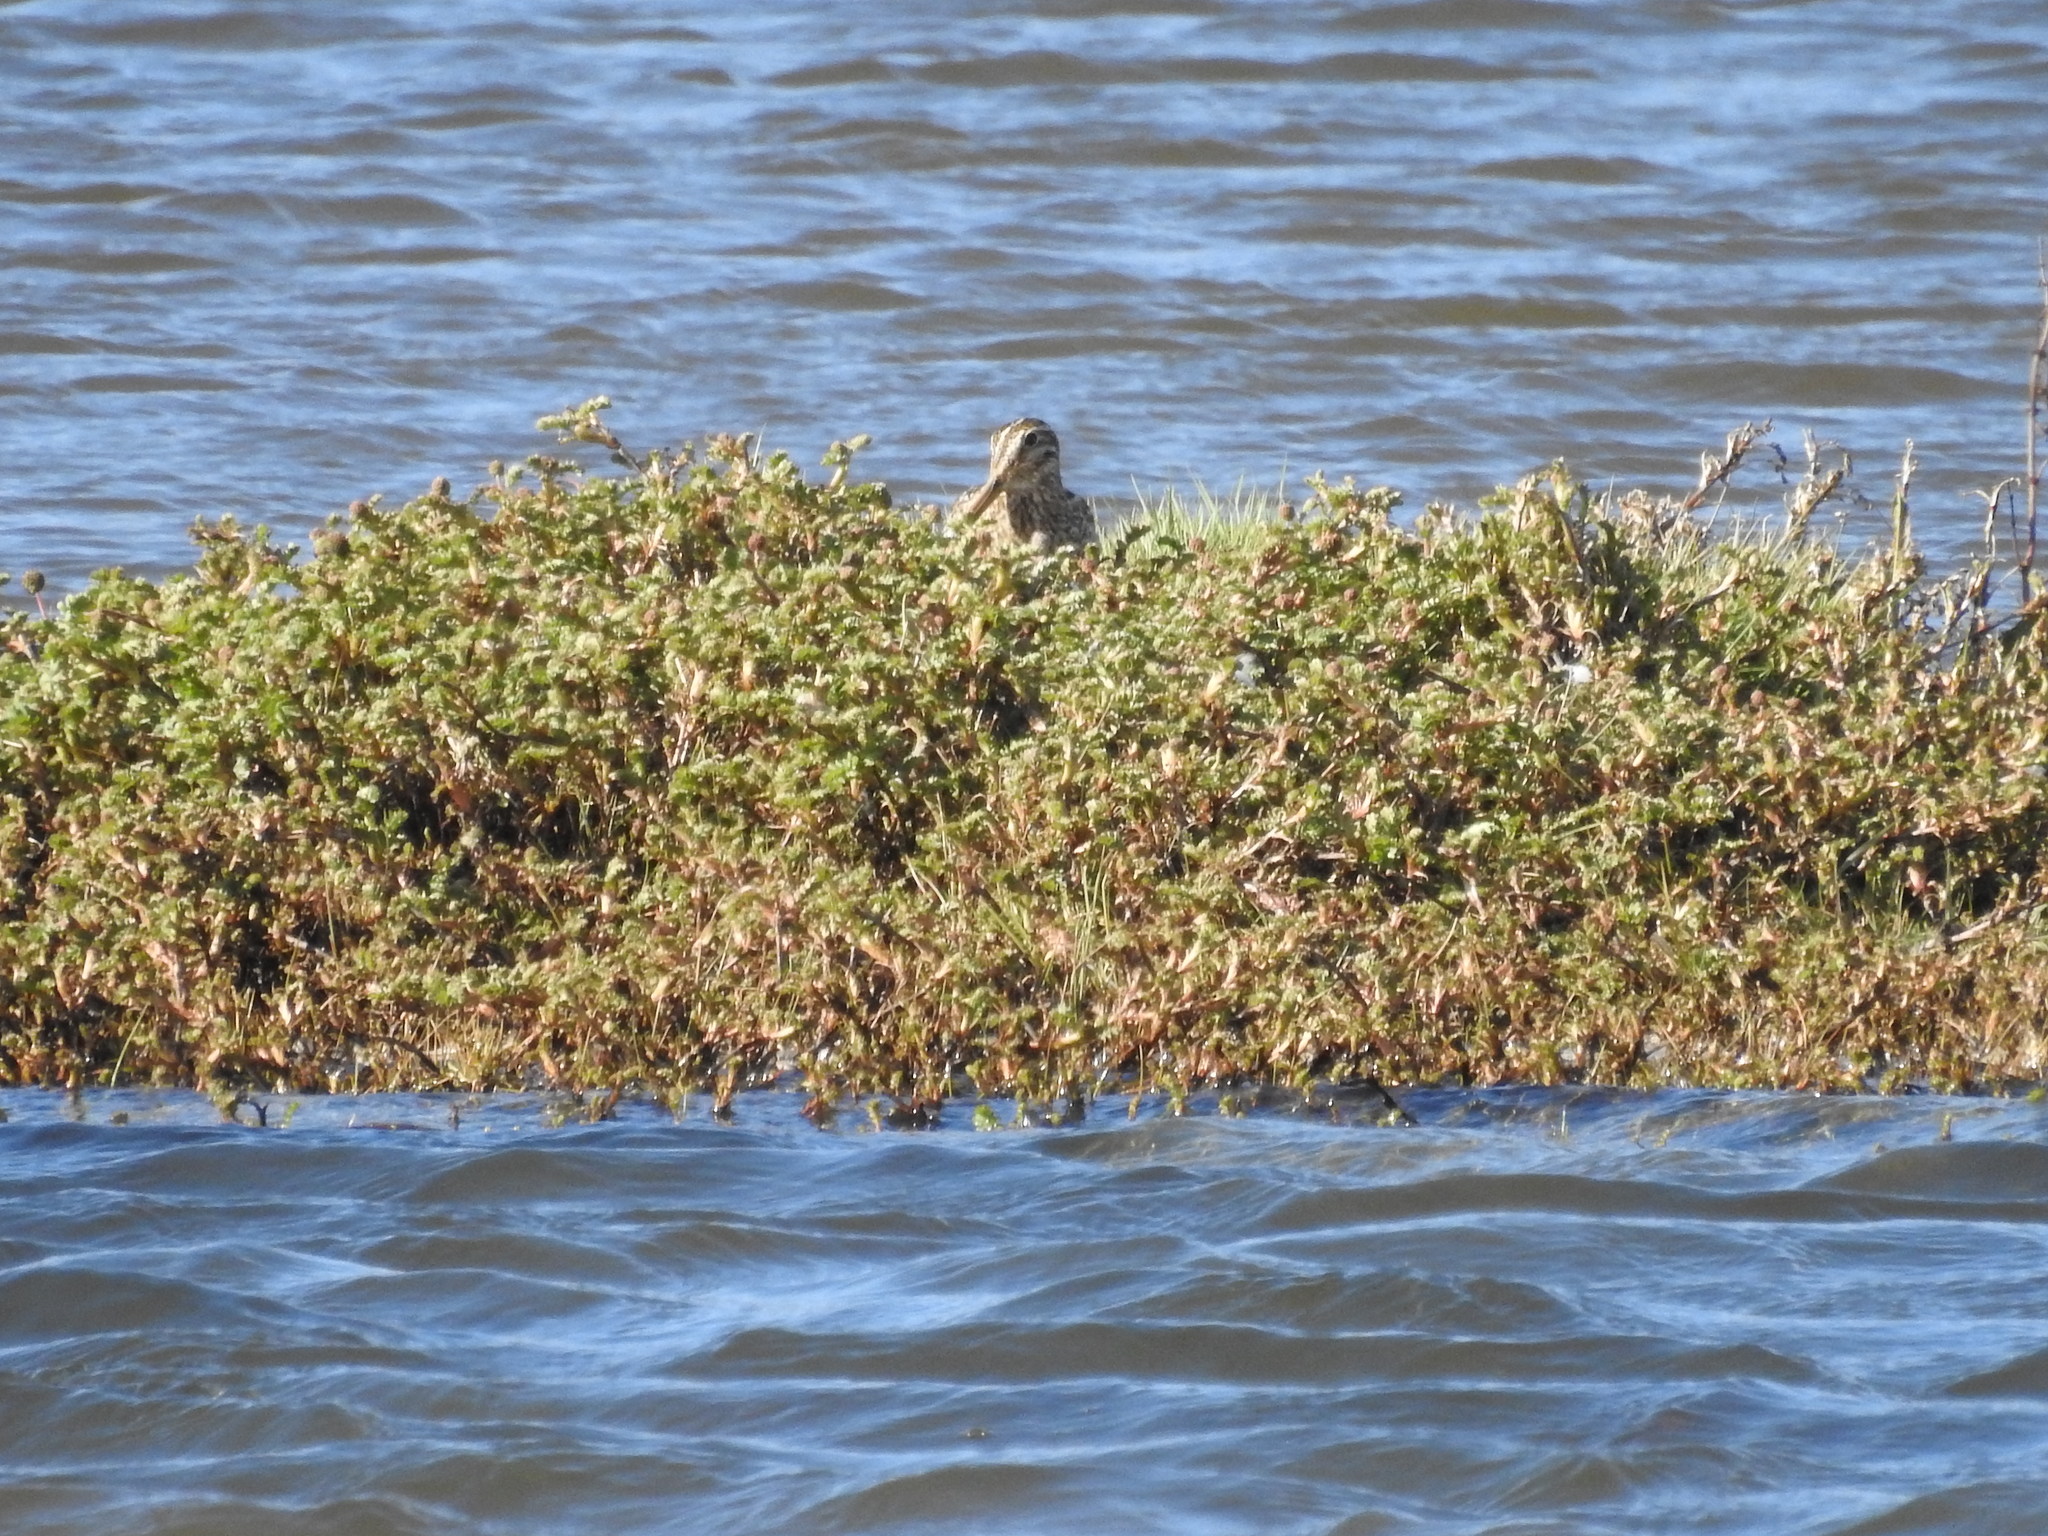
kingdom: Animalia
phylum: Chordata
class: Aves
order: Charadriiformes
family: Scolopacidae
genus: Gallinago
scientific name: Gallinago magellanica
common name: Magellanic snipe
